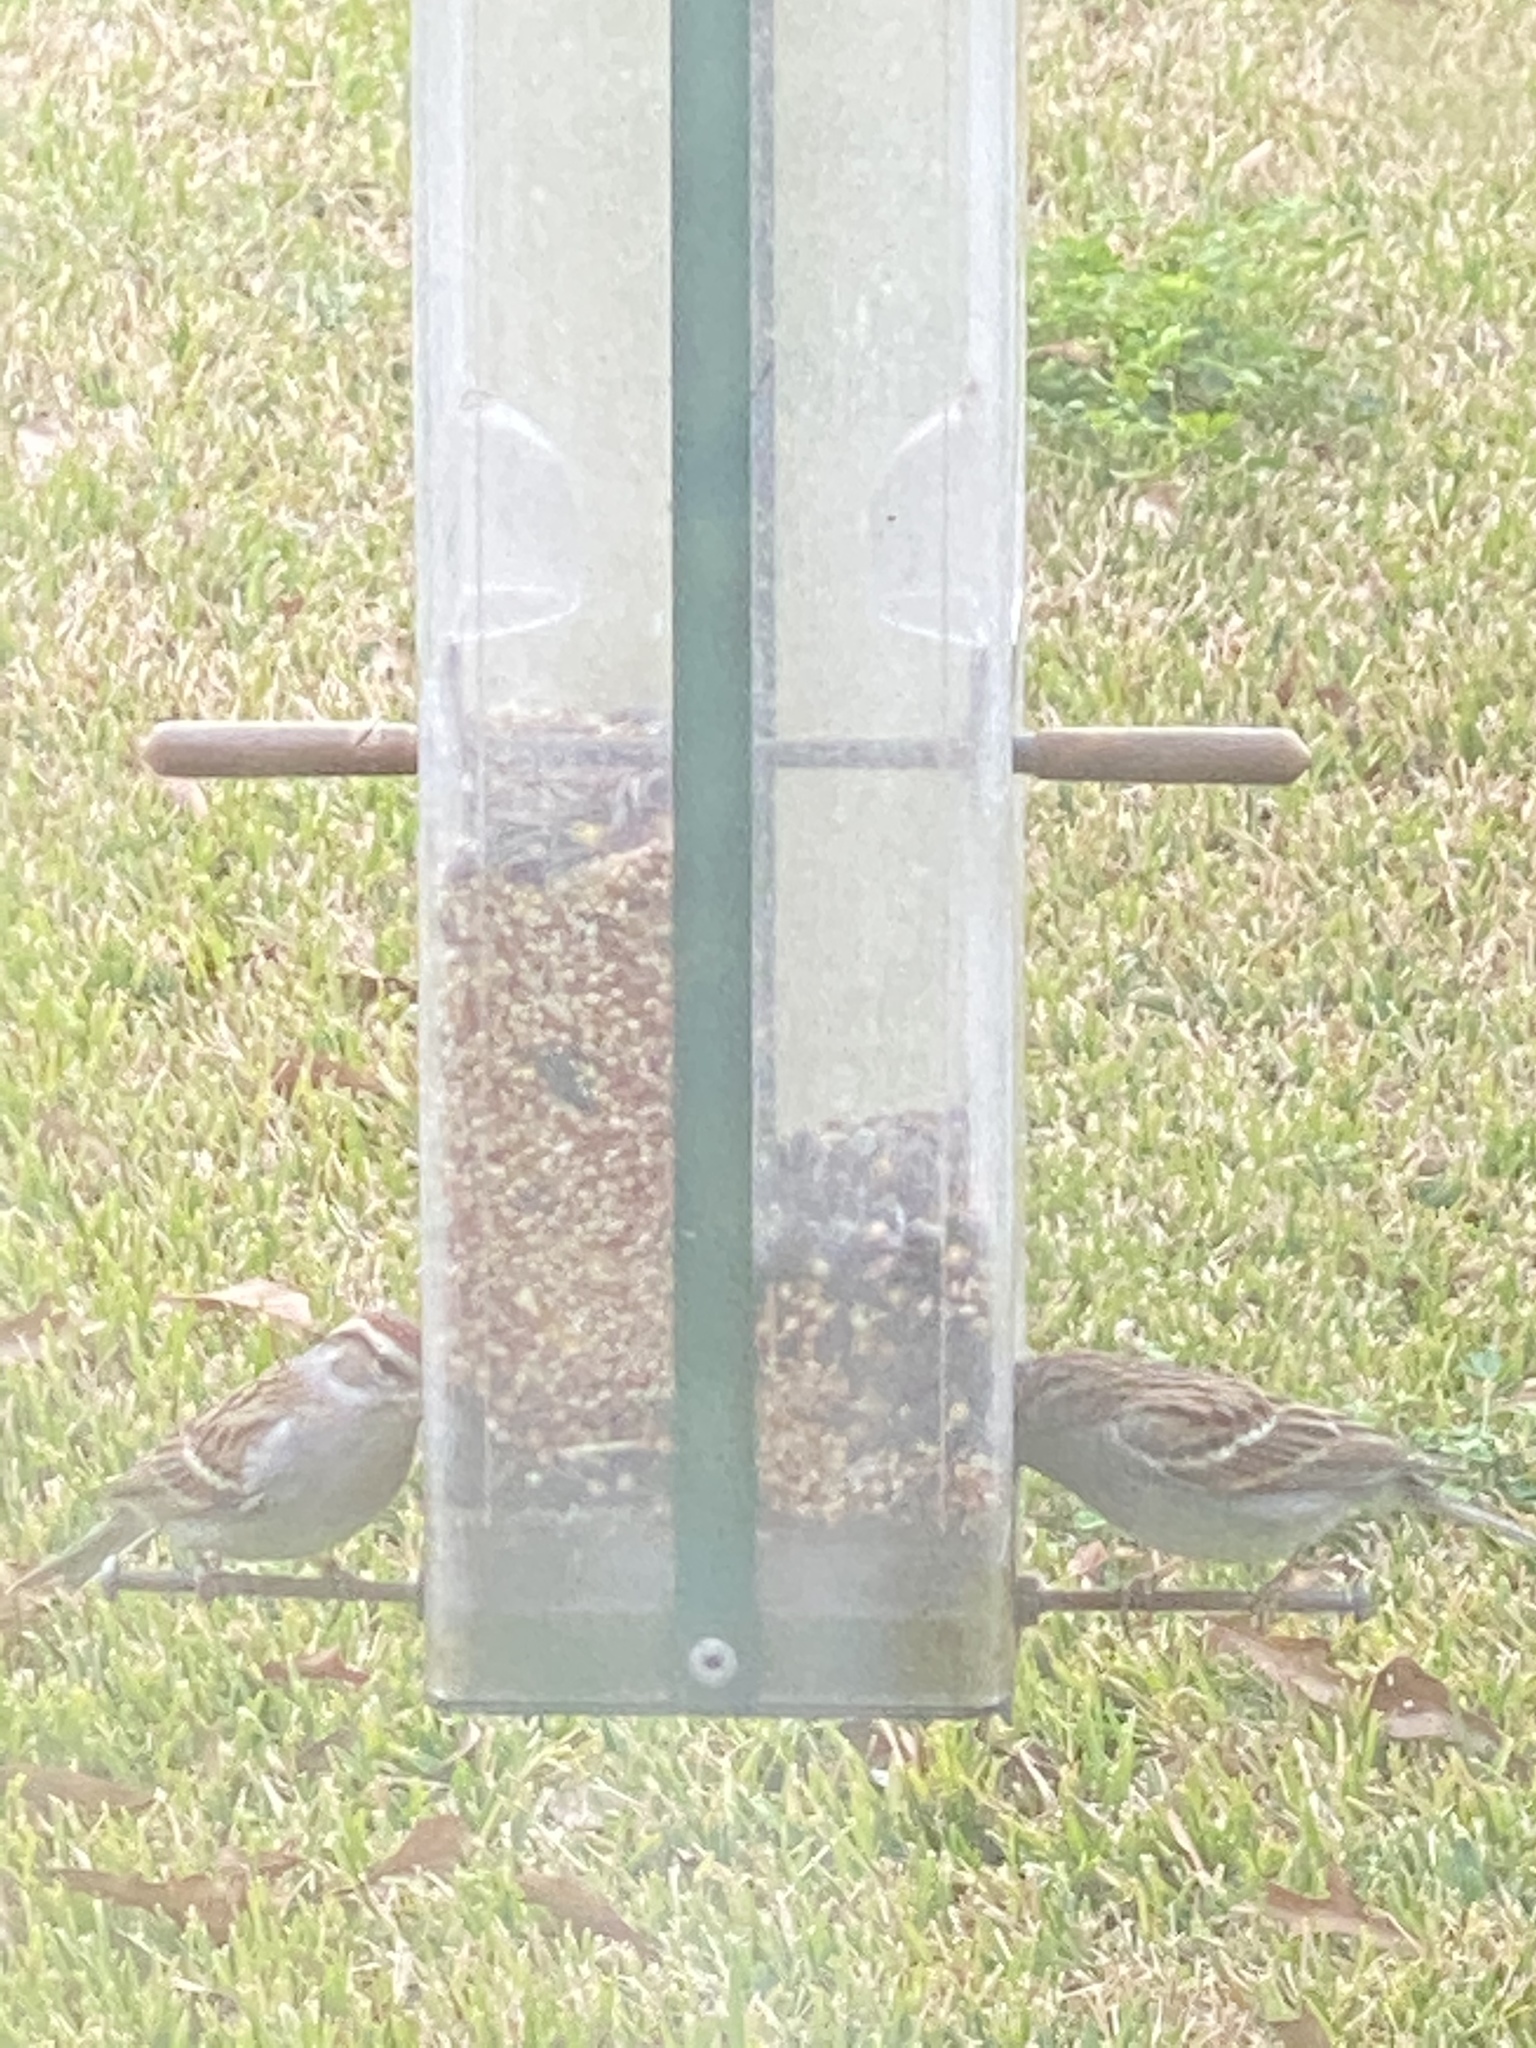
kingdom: Animalia
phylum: Chordata
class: Aves
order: Passeriformes
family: Passerellidae
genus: Spizella
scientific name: Spizella passerina
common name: Chipping sparrow
